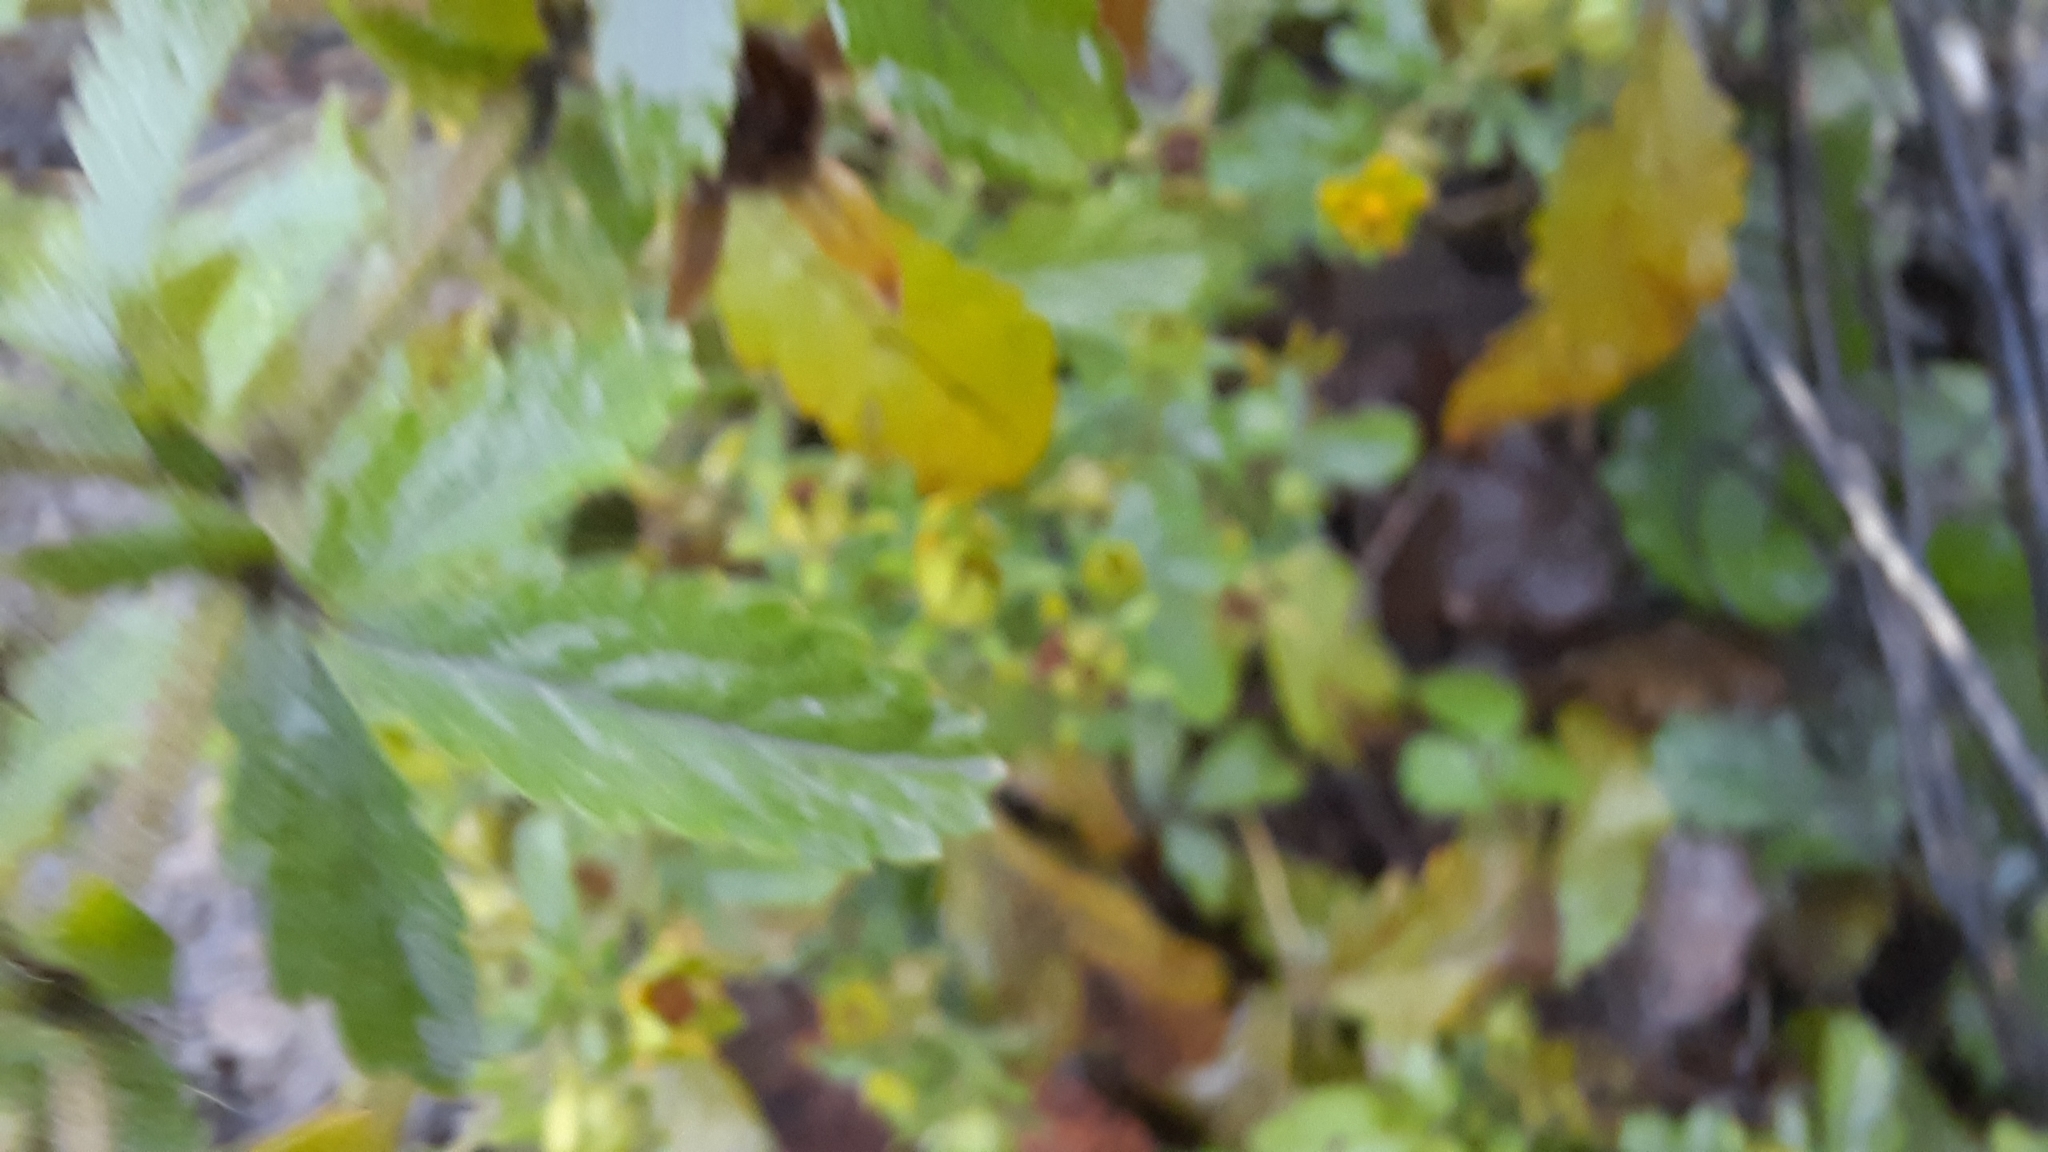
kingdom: Plantae
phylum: Tracheophyta
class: Magnoliopsida
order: Rosales
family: Rosaceae
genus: Potentilla
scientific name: Potentilla norvegica
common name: Ternate-leaved cinquefoil
